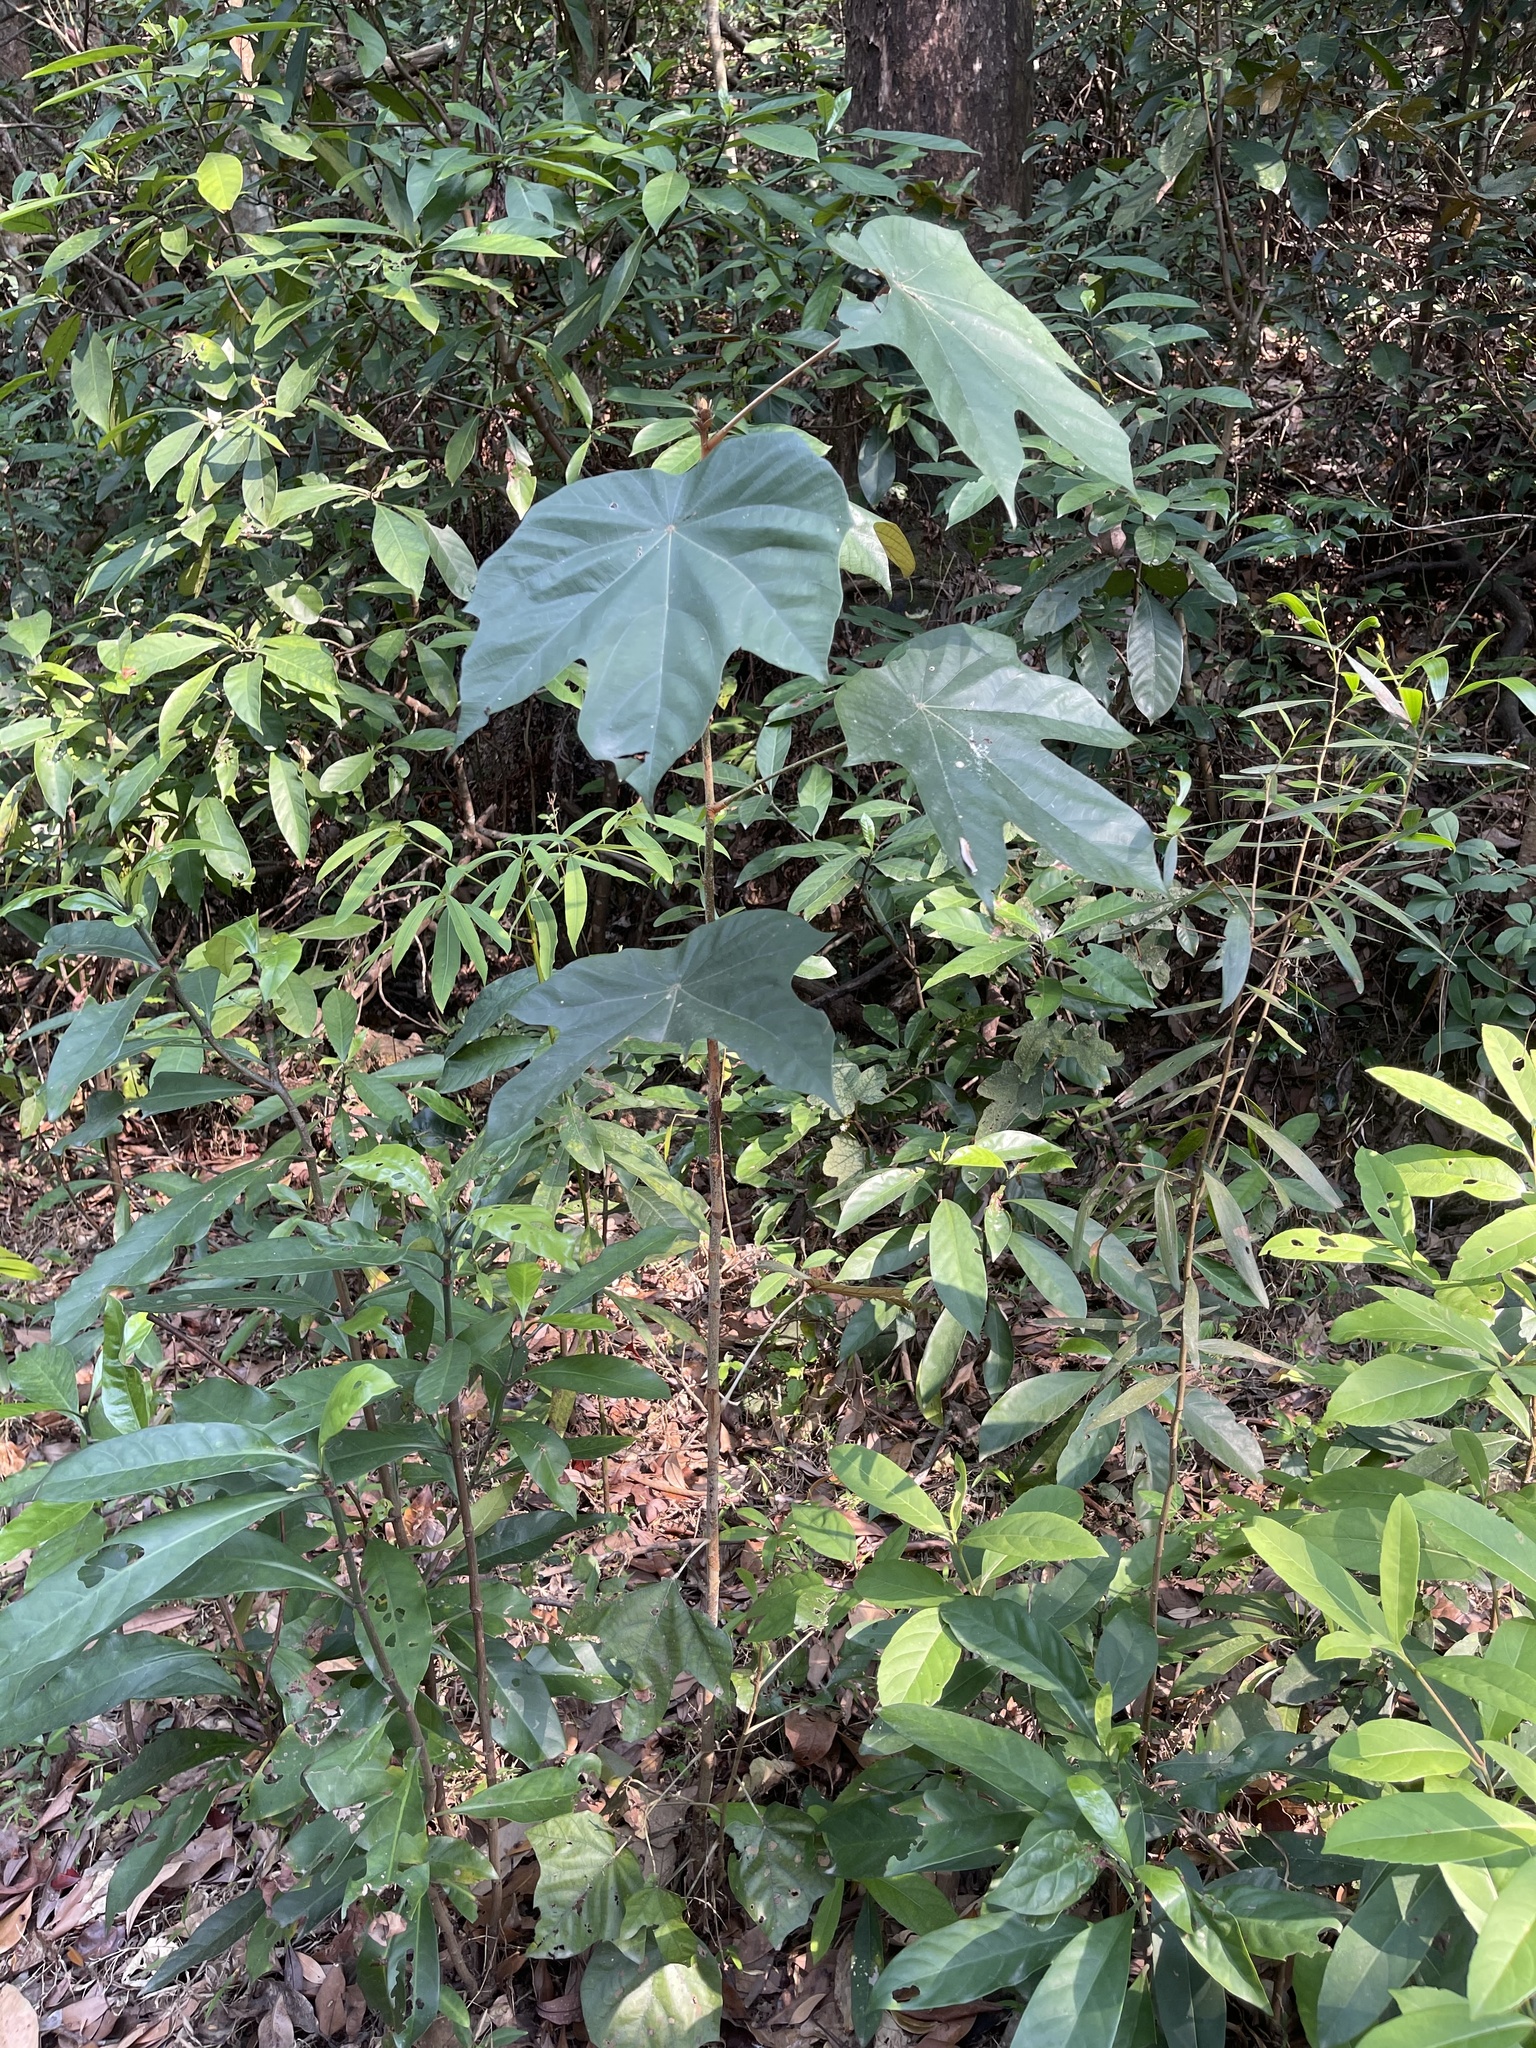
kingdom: Plantae
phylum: Tracheophyta
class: Magnoliopsida
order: Malvales
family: Malvaceae
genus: Pterospermum
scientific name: Pterospermum heterophyllum
